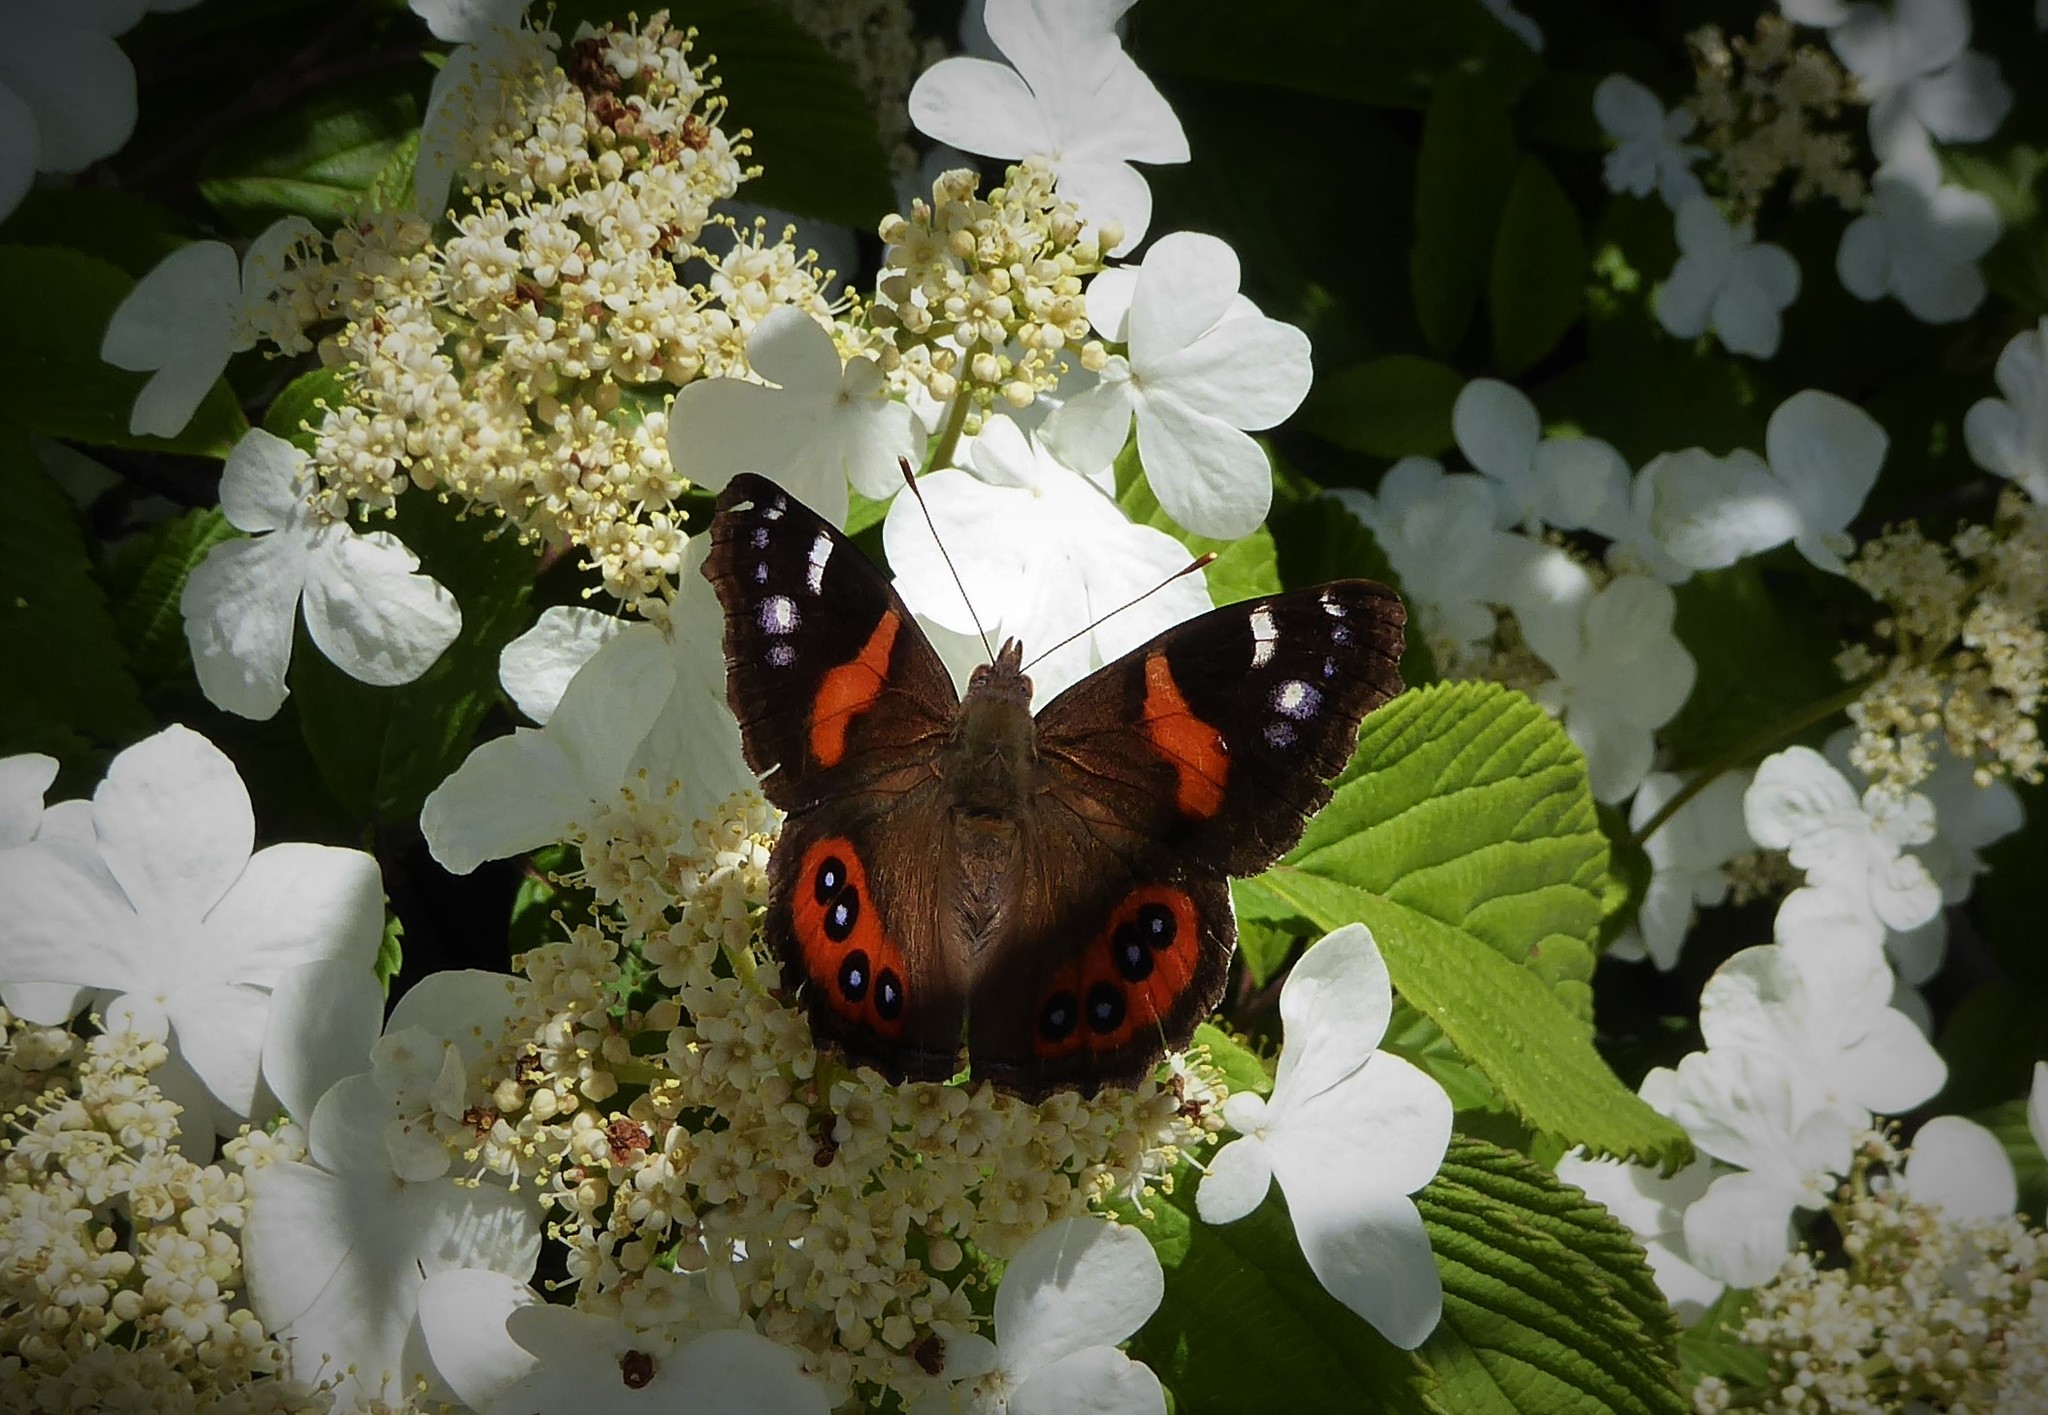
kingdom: Animalia
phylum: Arthropoda
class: Insecta
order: Lepidoptera
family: Nymphalidae
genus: Vanessa
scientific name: Vanessa gonerilla
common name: New zealand red admiral
